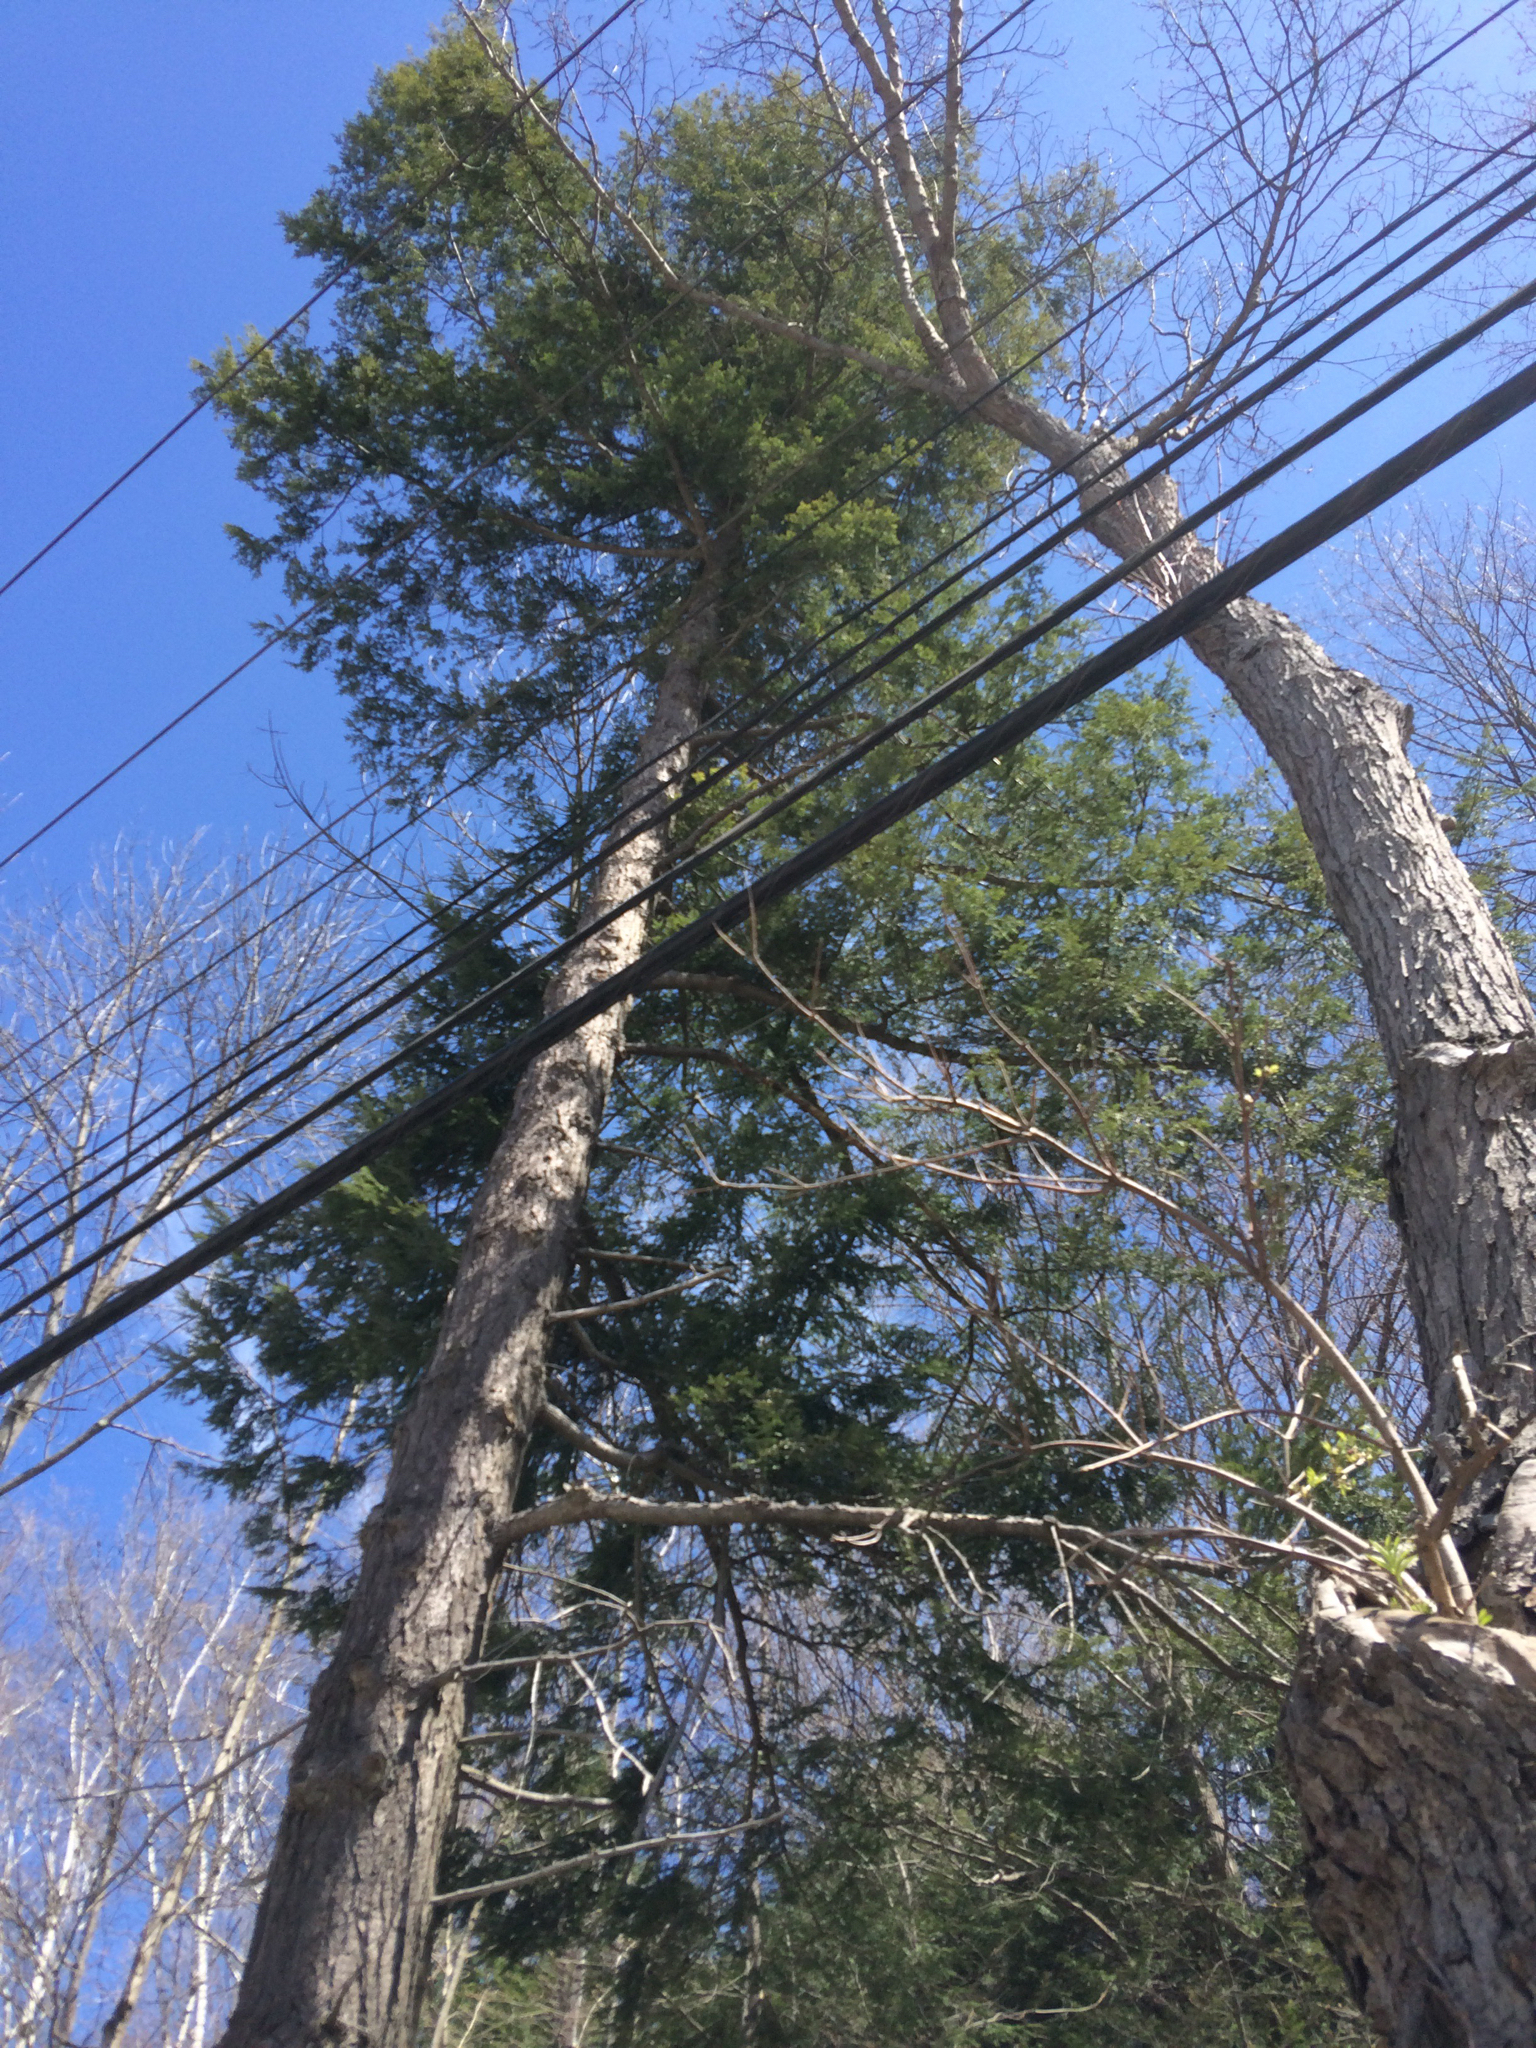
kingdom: Plantae
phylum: Tracheophyta
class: Pinopsida
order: Pinales
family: Pinaceae
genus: Tsuga
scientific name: Tsuga canadensis
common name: Eastern hemlock
